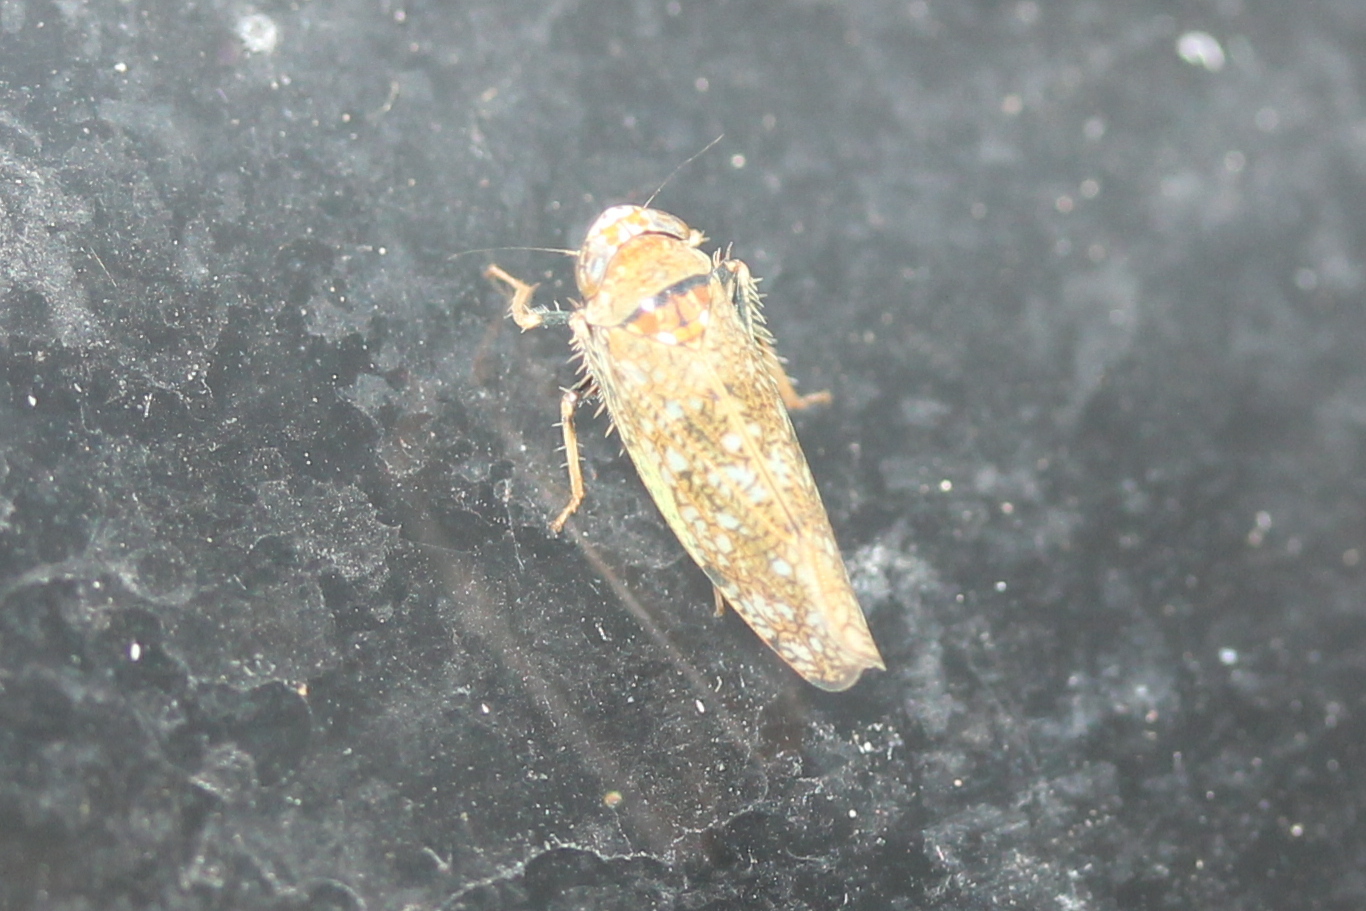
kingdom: Animalia
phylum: Arthropoda
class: Insecta
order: Hemiptera
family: Cicadellidae
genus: Orientus
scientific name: Orientus ishidae
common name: Japanese leafhopper
